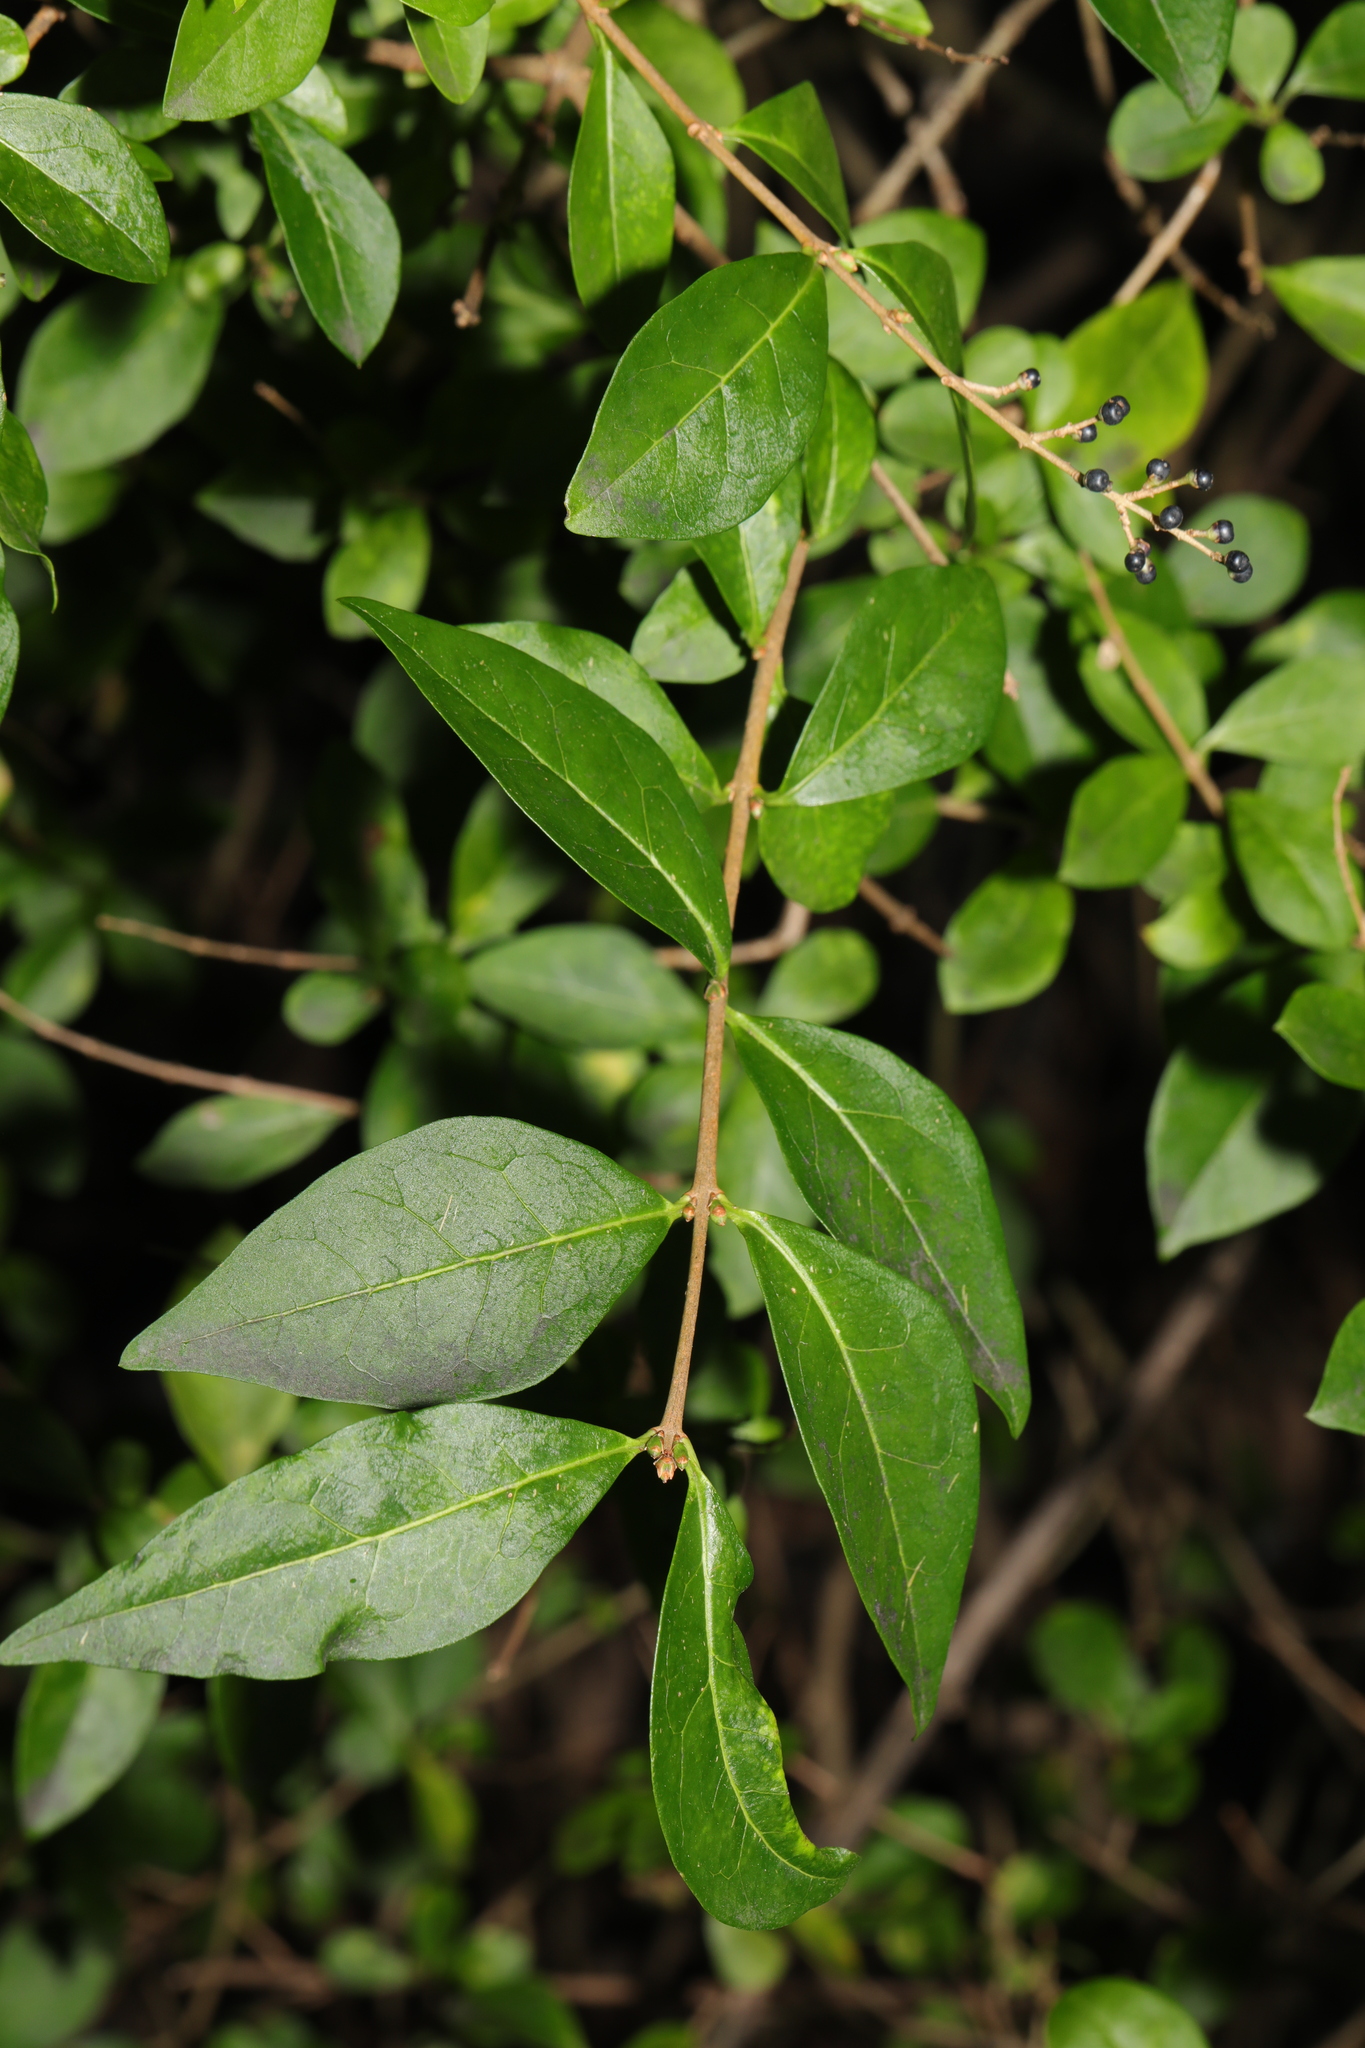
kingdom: Plantae
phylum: Tracheophyta
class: Magnoliopsida
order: Lamiales
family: Oleaceae
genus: Ligustrum
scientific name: Ligustrum ovalifolium
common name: California privet
